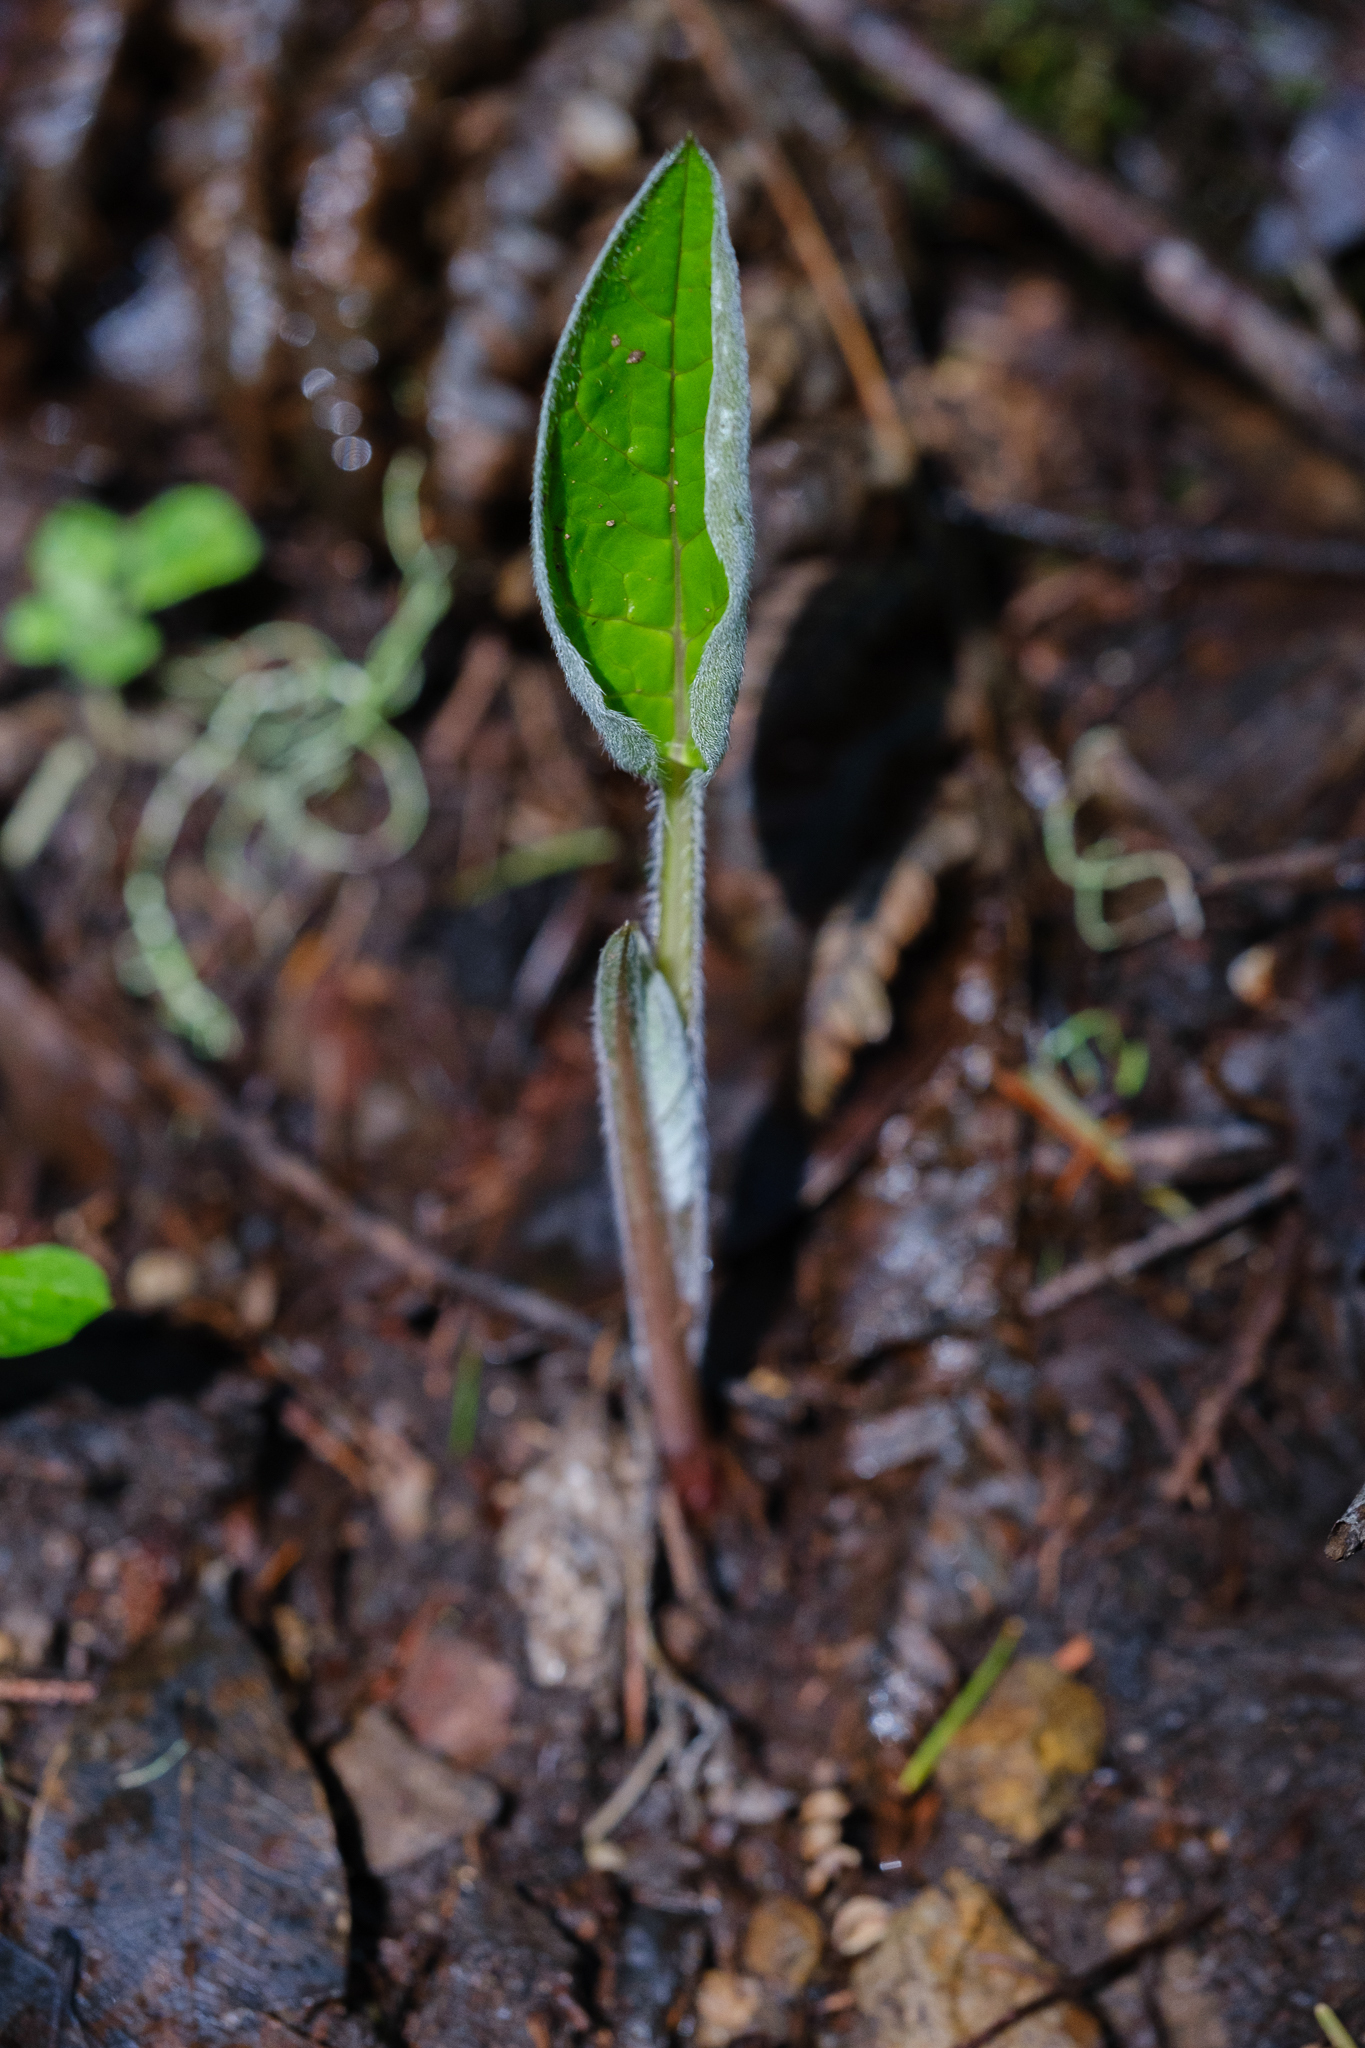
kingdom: Plantae
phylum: Tracheophyta
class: Magnoliopsida
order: Boraginales
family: Boraginaceae
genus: Adelinia
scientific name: Adelinia grande
